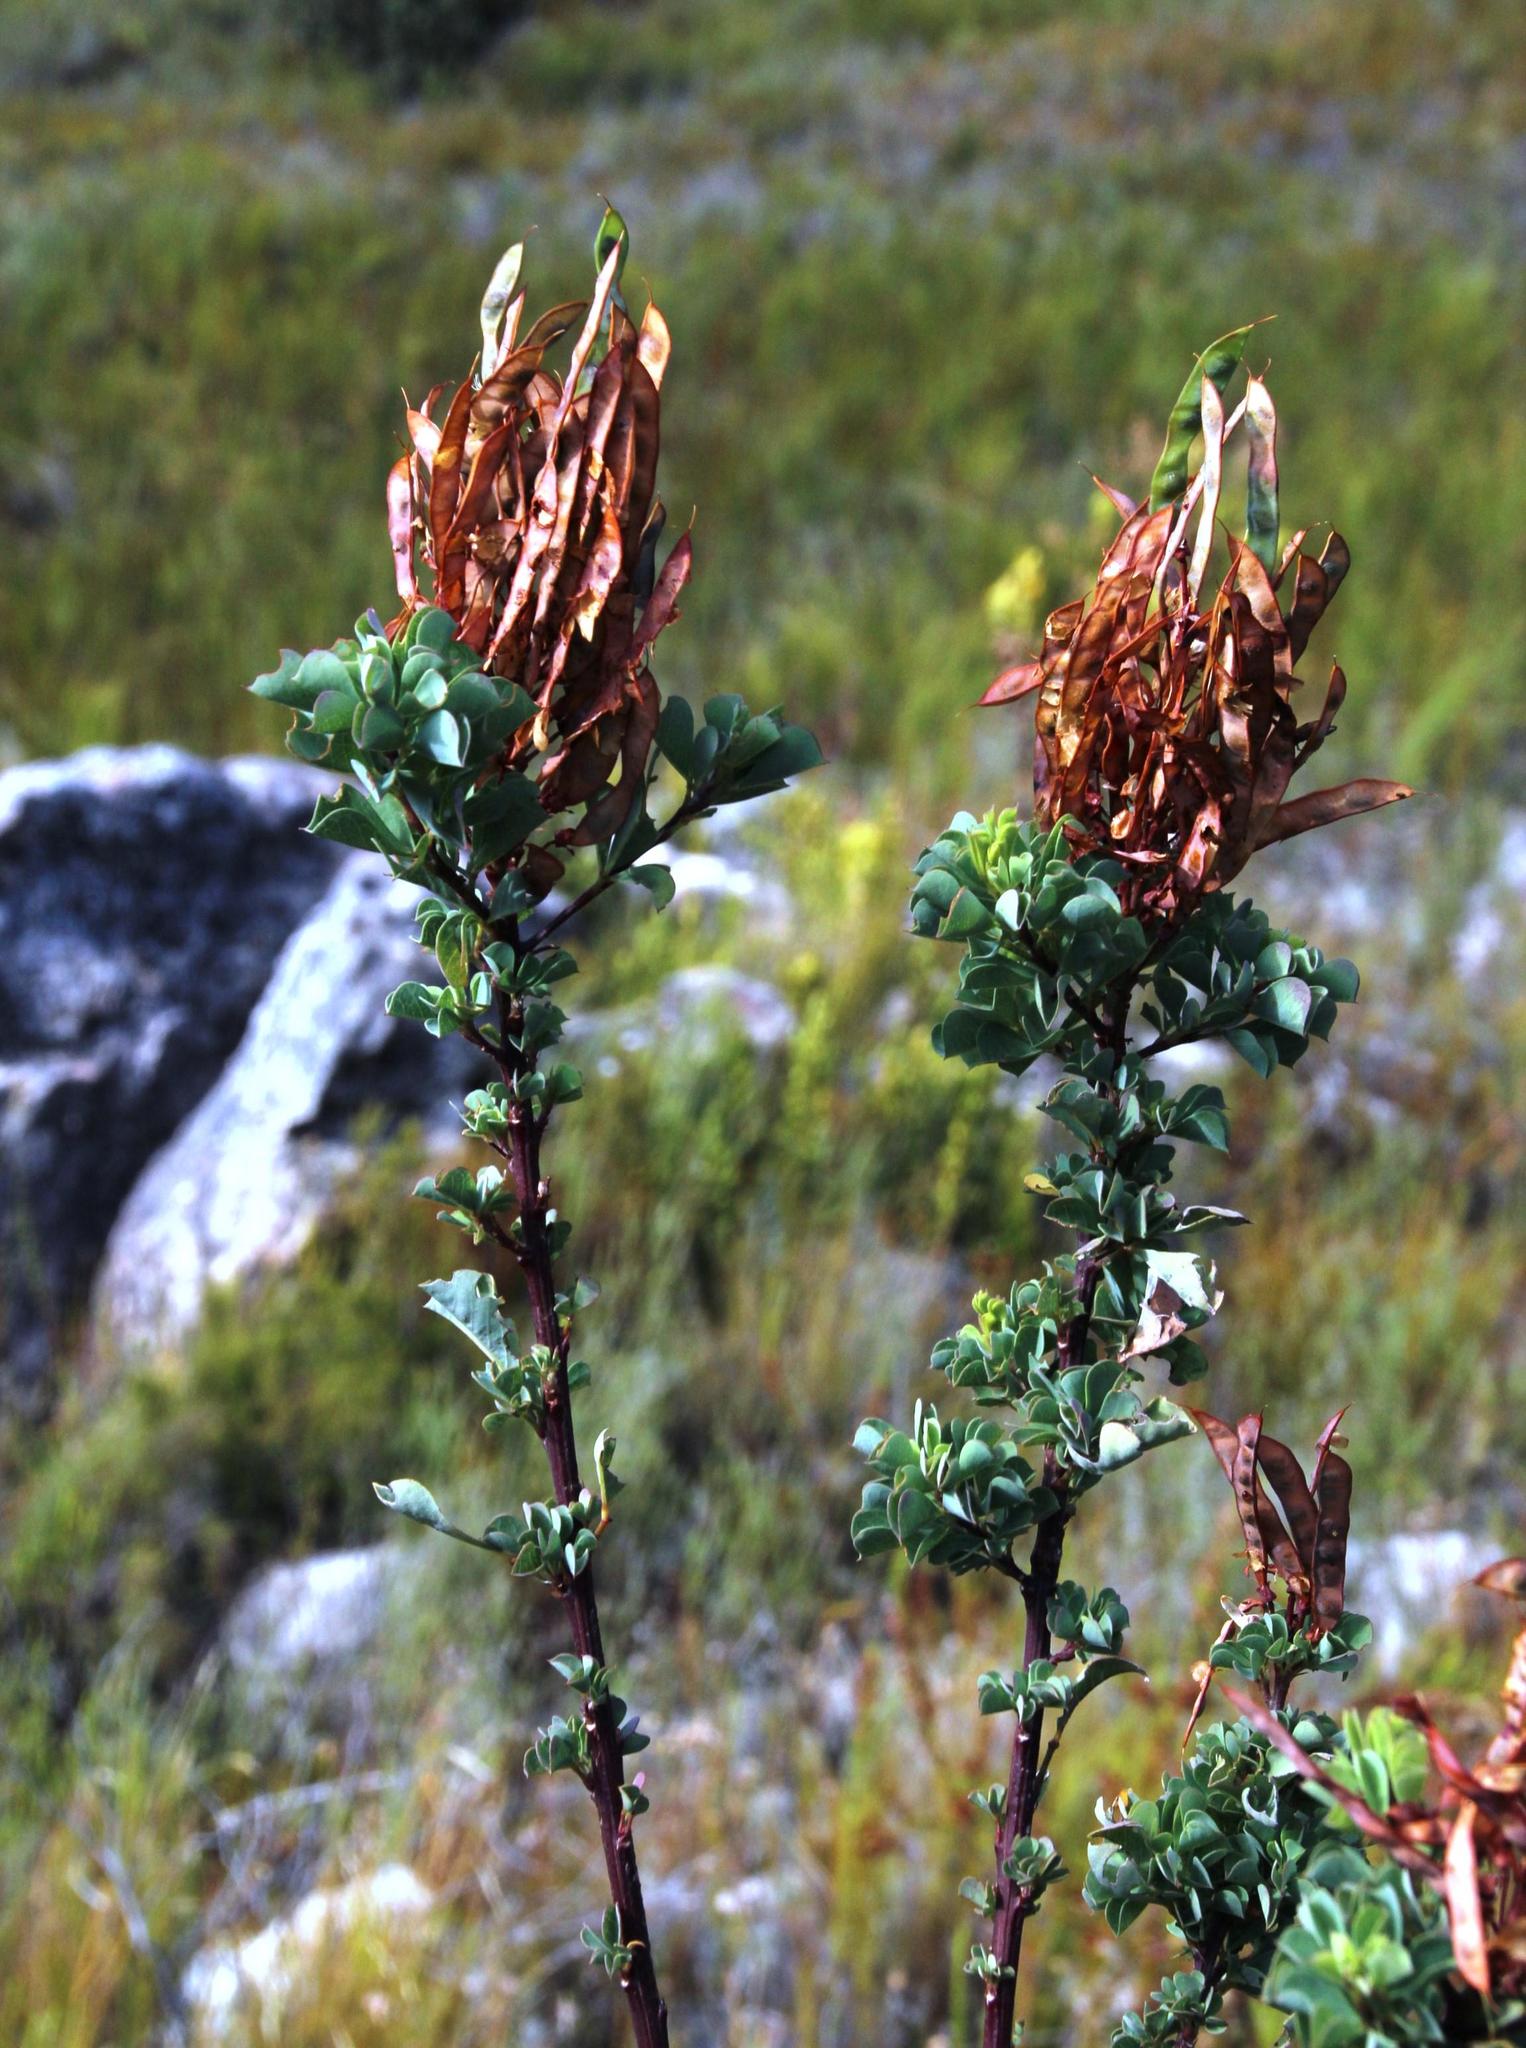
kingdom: Plantae
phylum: Tracheophyta
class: Magnoliopsida
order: Fabales
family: Fabaceae
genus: Hypocalyptus
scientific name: Hypocalyptus sophoroides
